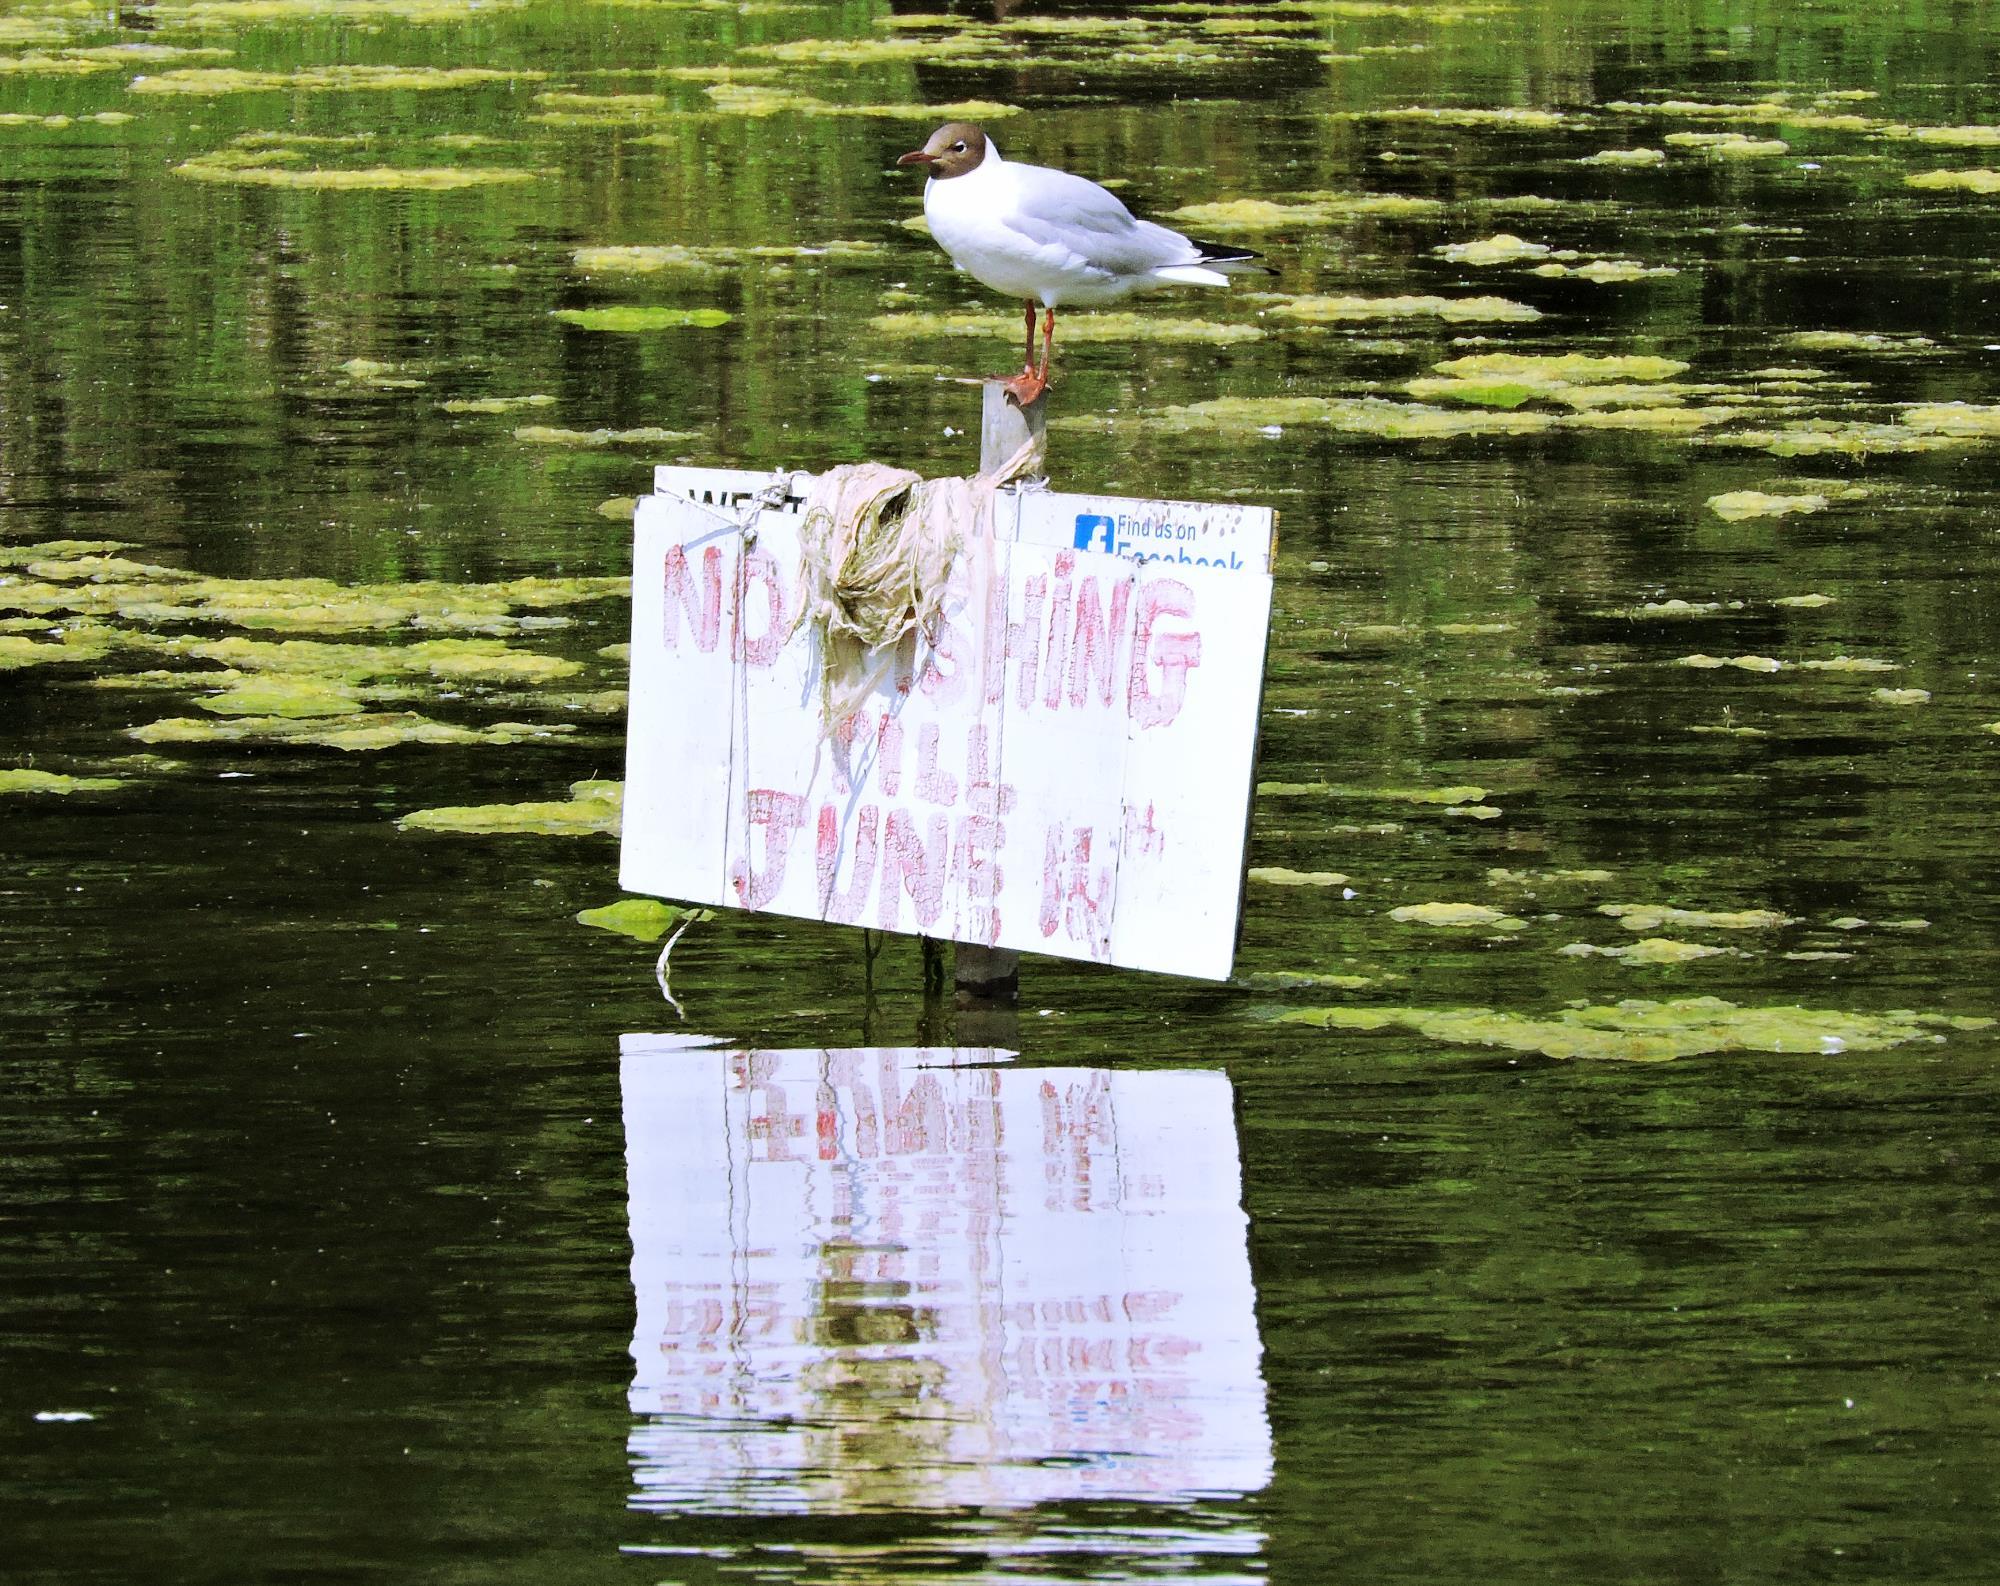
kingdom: Animalia
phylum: Chordata
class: Aves
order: Charadriiformes
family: Laridae
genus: Chroicocephalus
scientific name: Chroicocephalus ridibundus
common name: Black-headed gull
